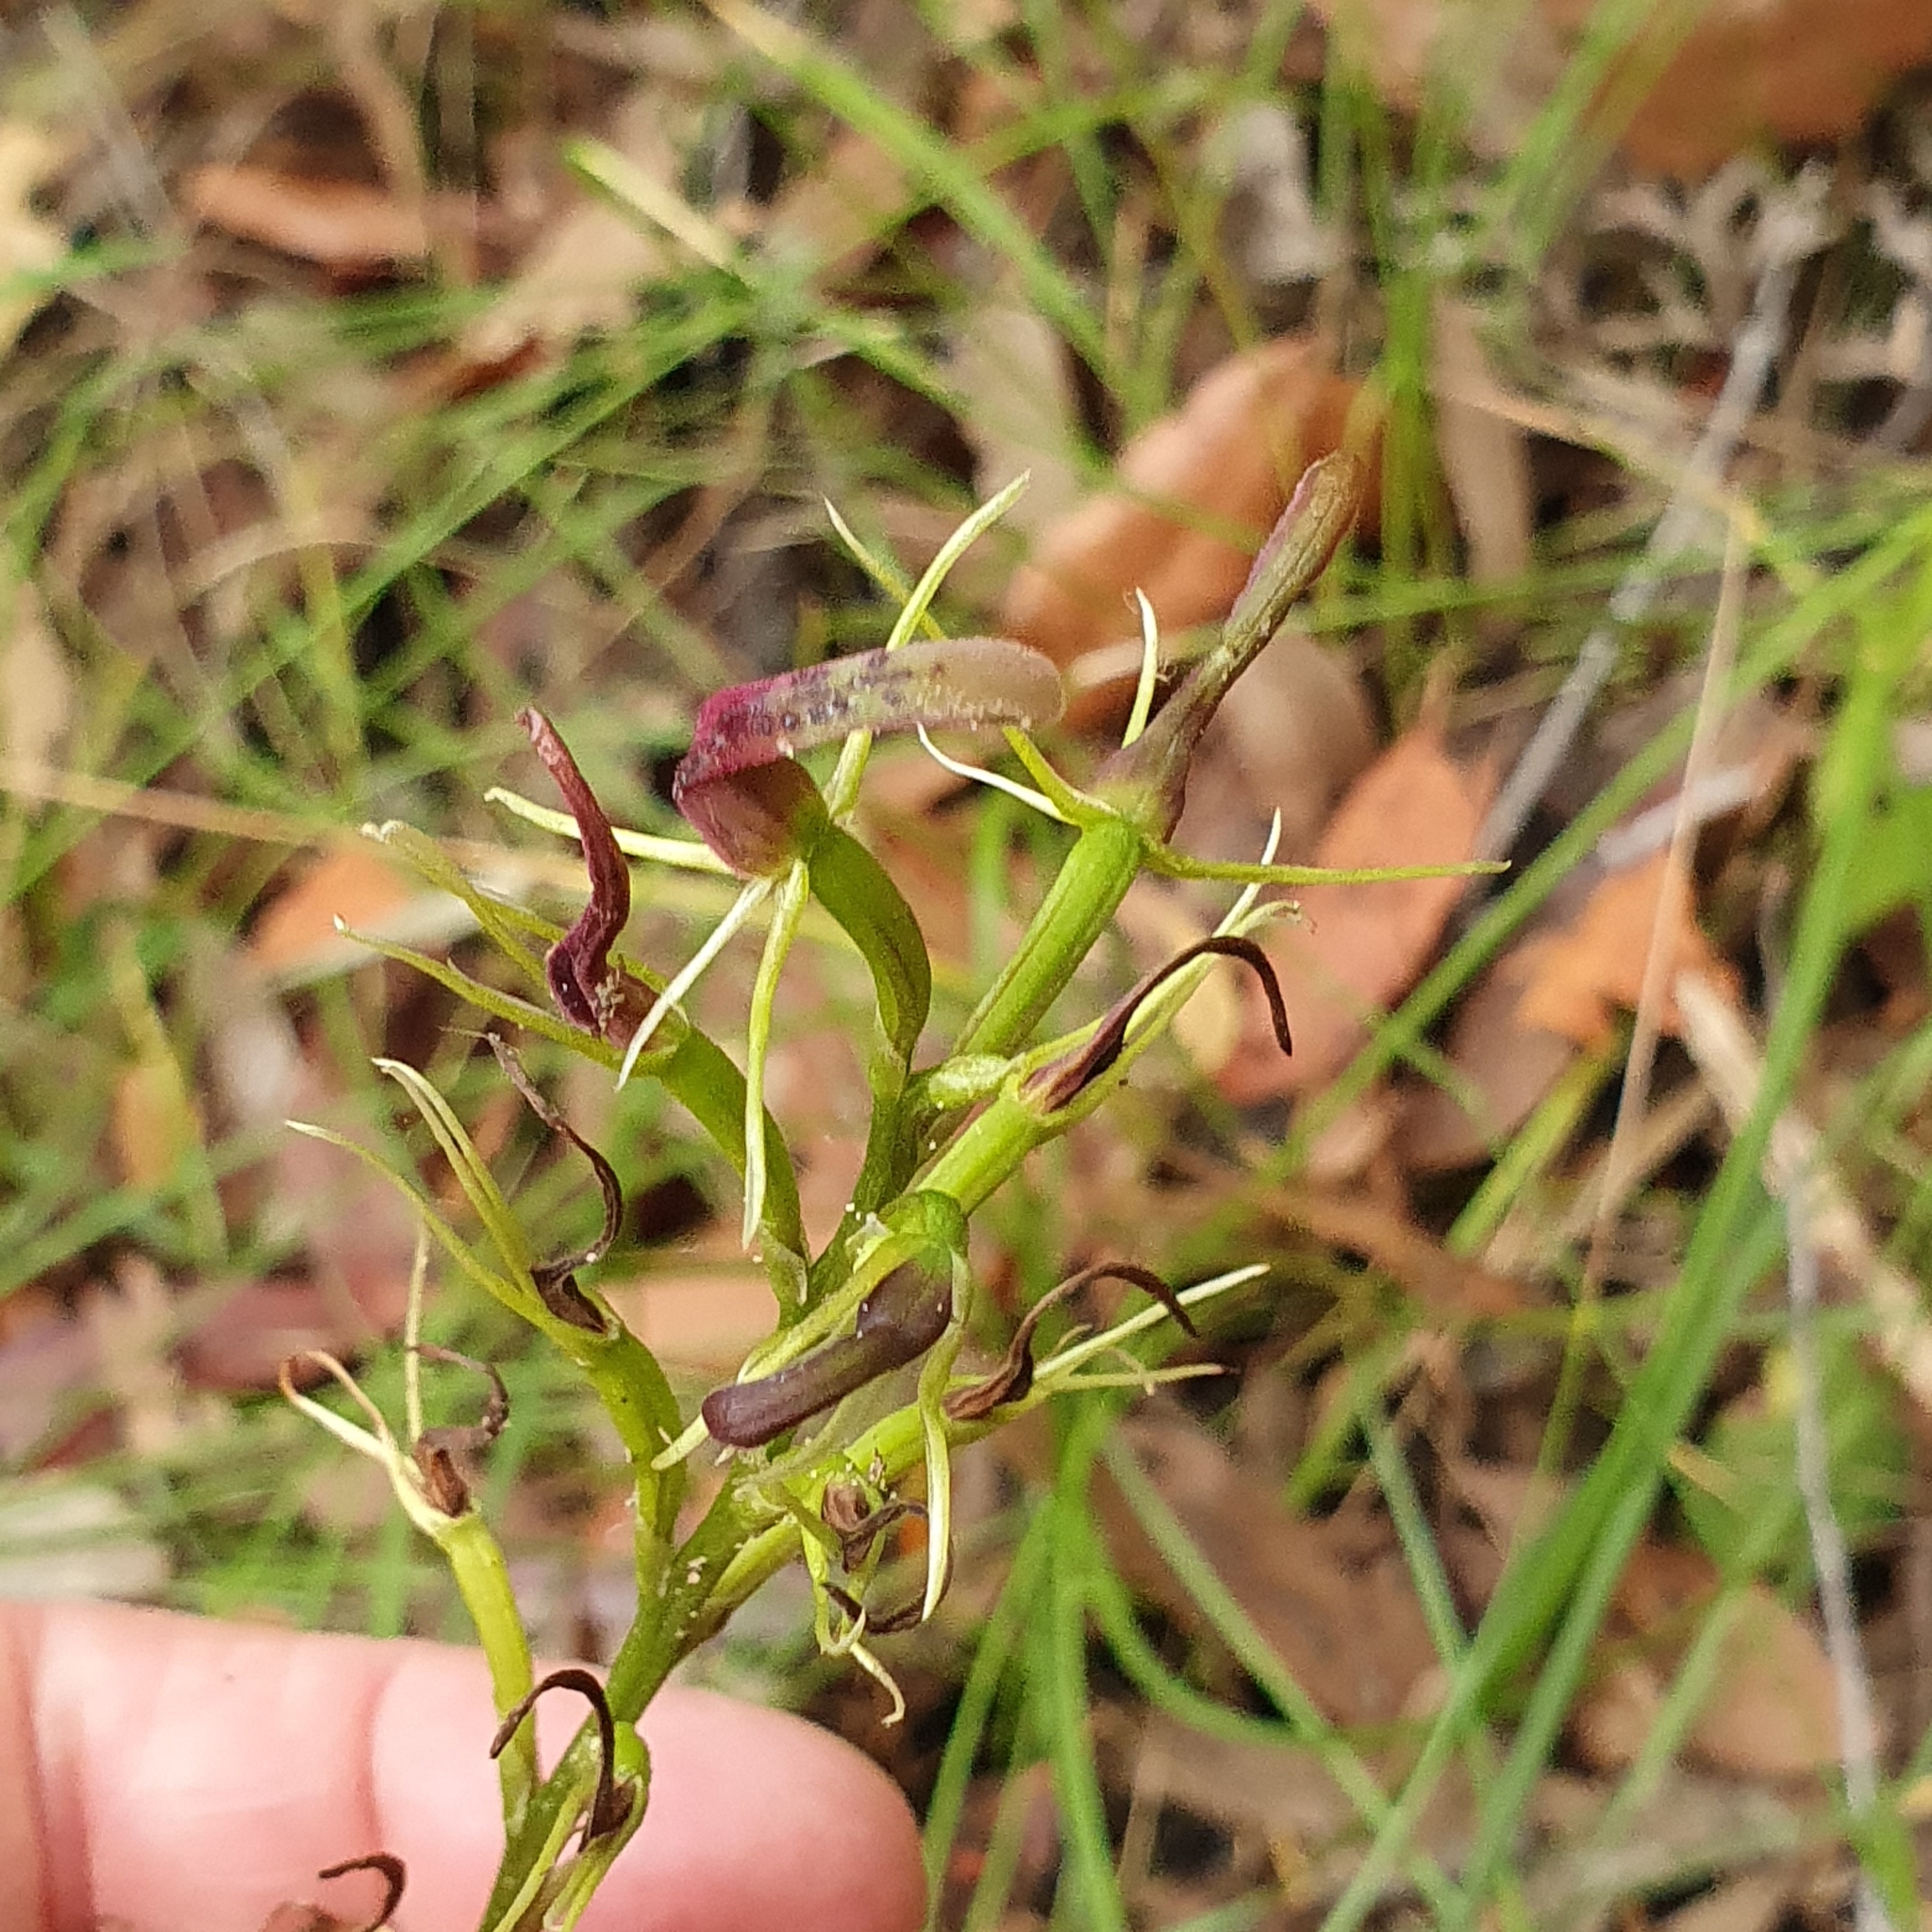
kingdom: Plantae
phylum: Tracheophyta
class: Liliopsida
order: Asparagales
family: Orchidaceae
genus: Cryptostylis
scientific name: Cryptostylis leptochila
